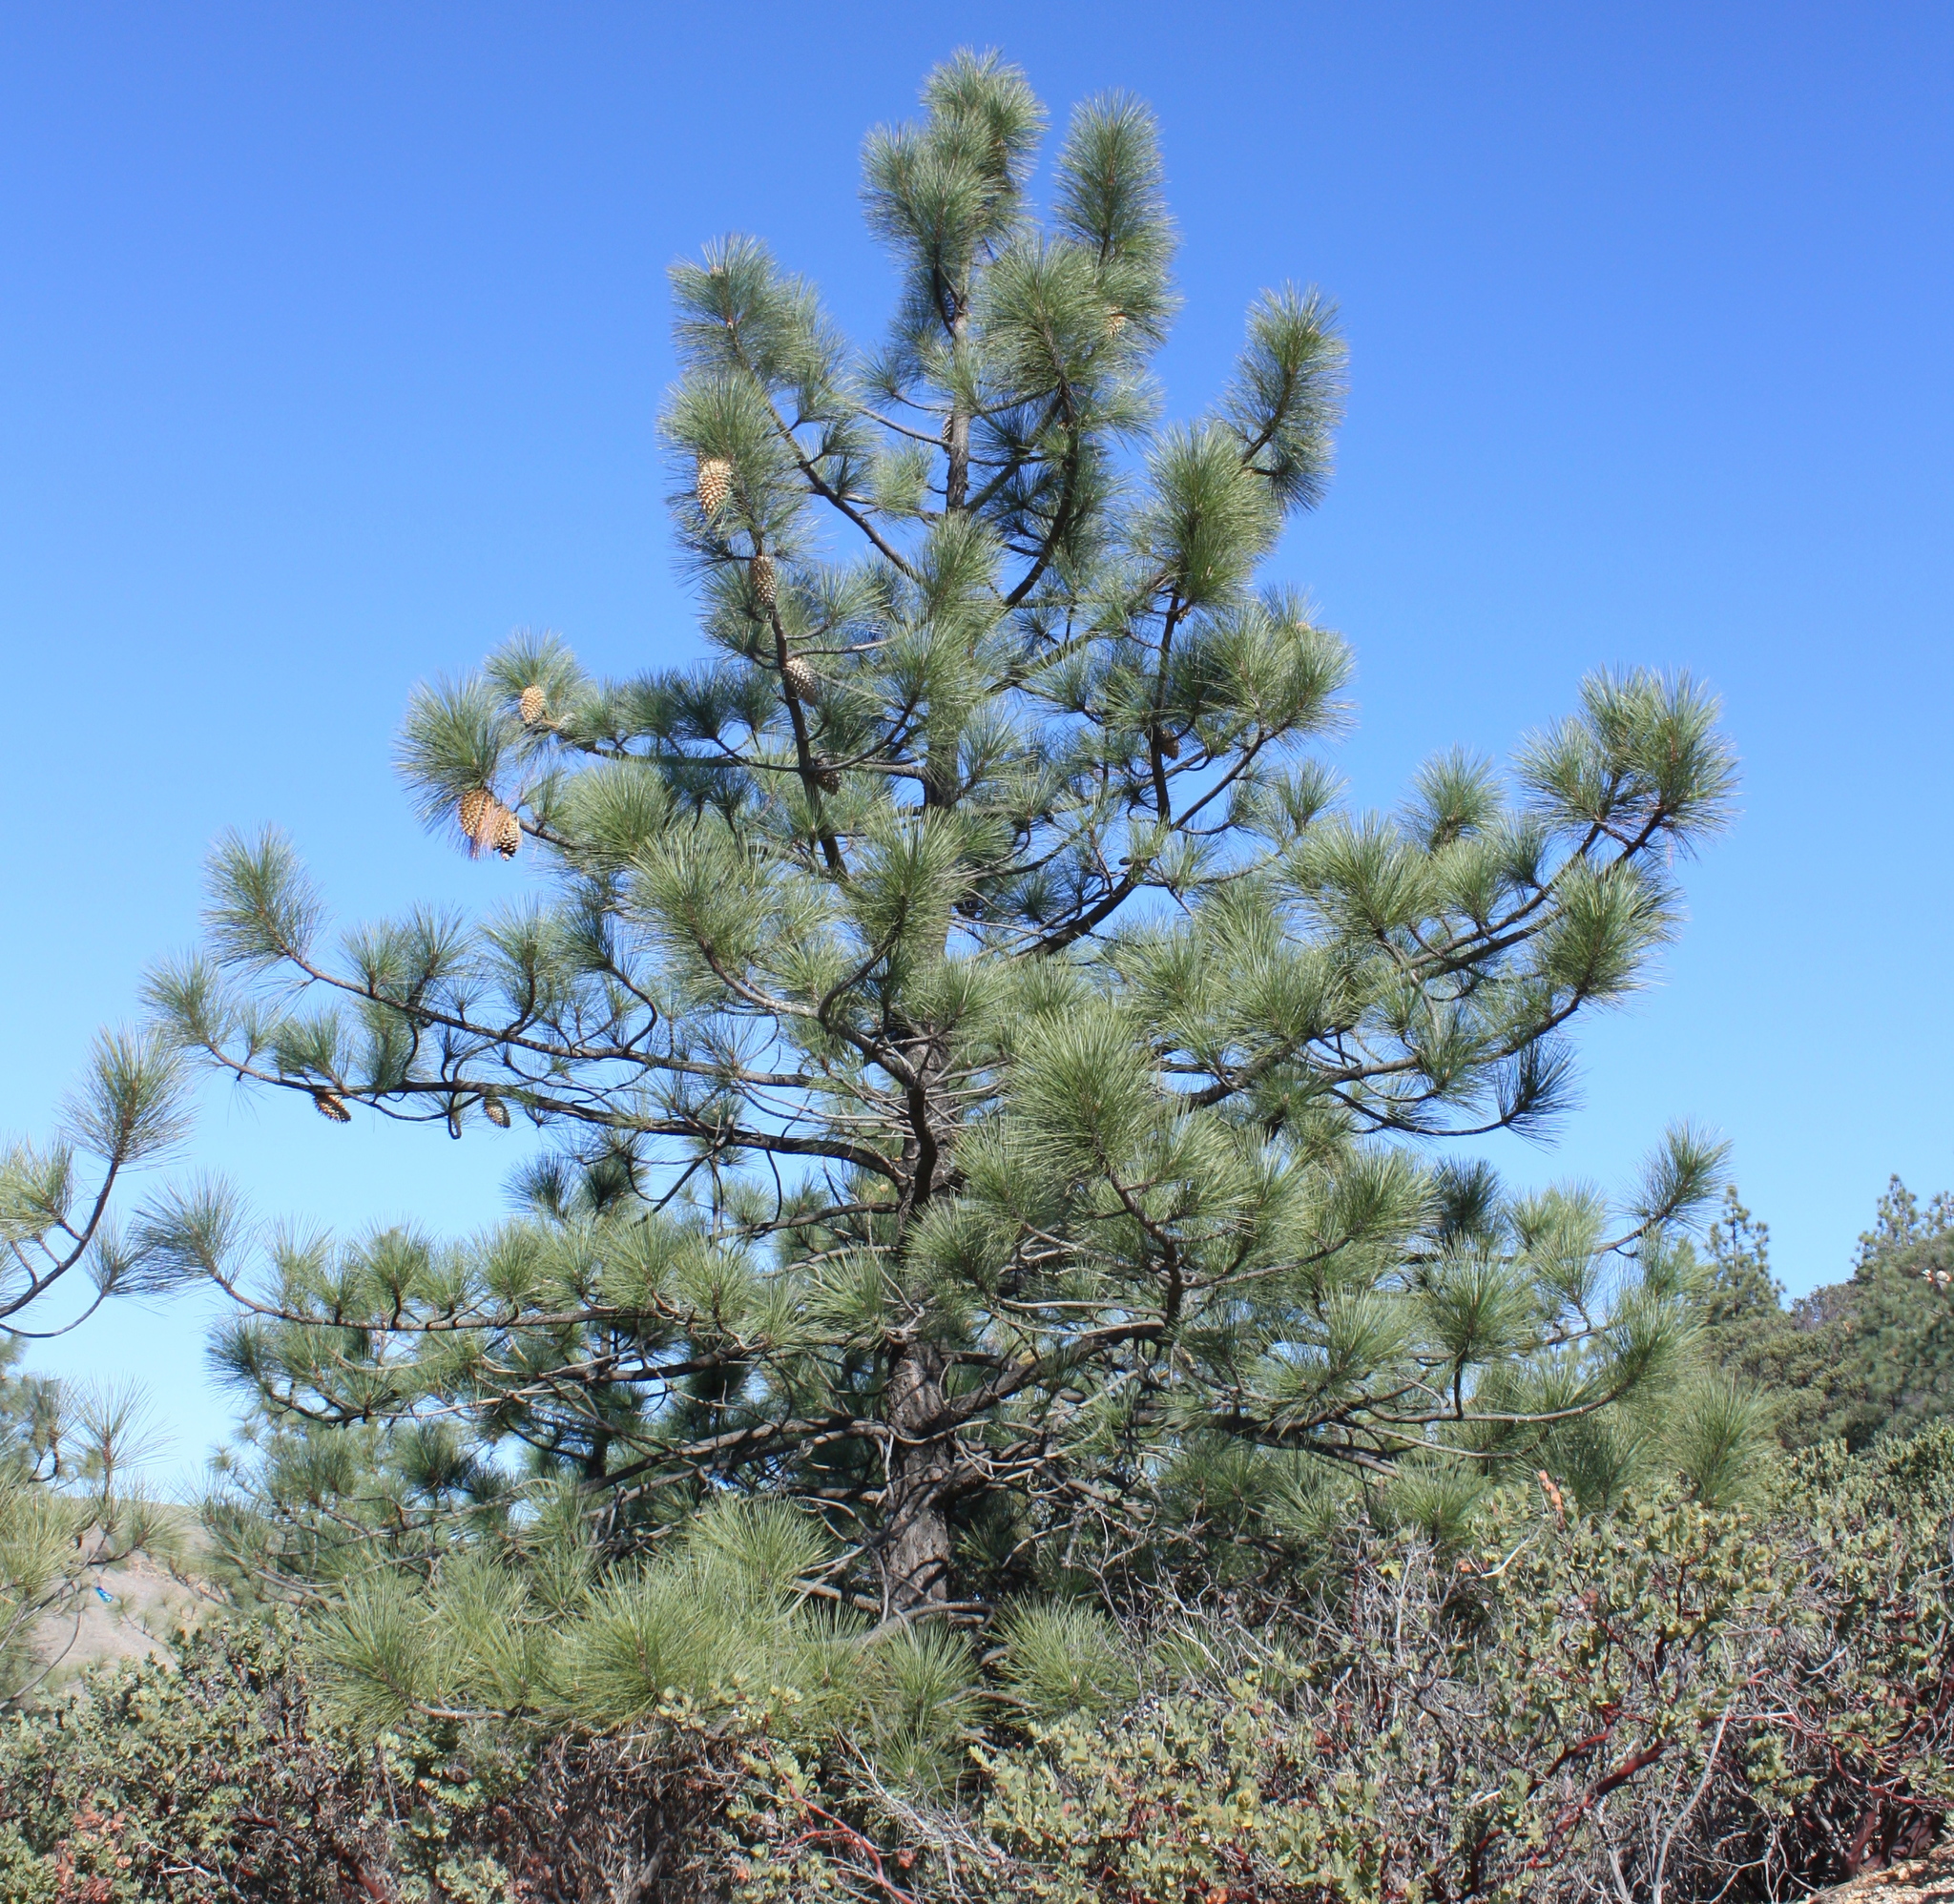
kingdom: Plantae
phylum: Tracheophyta
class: Pinopsida
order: Pinales
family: Pinaceae
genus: Pinus
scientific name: Pinus coulteri
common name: Coulter pine
